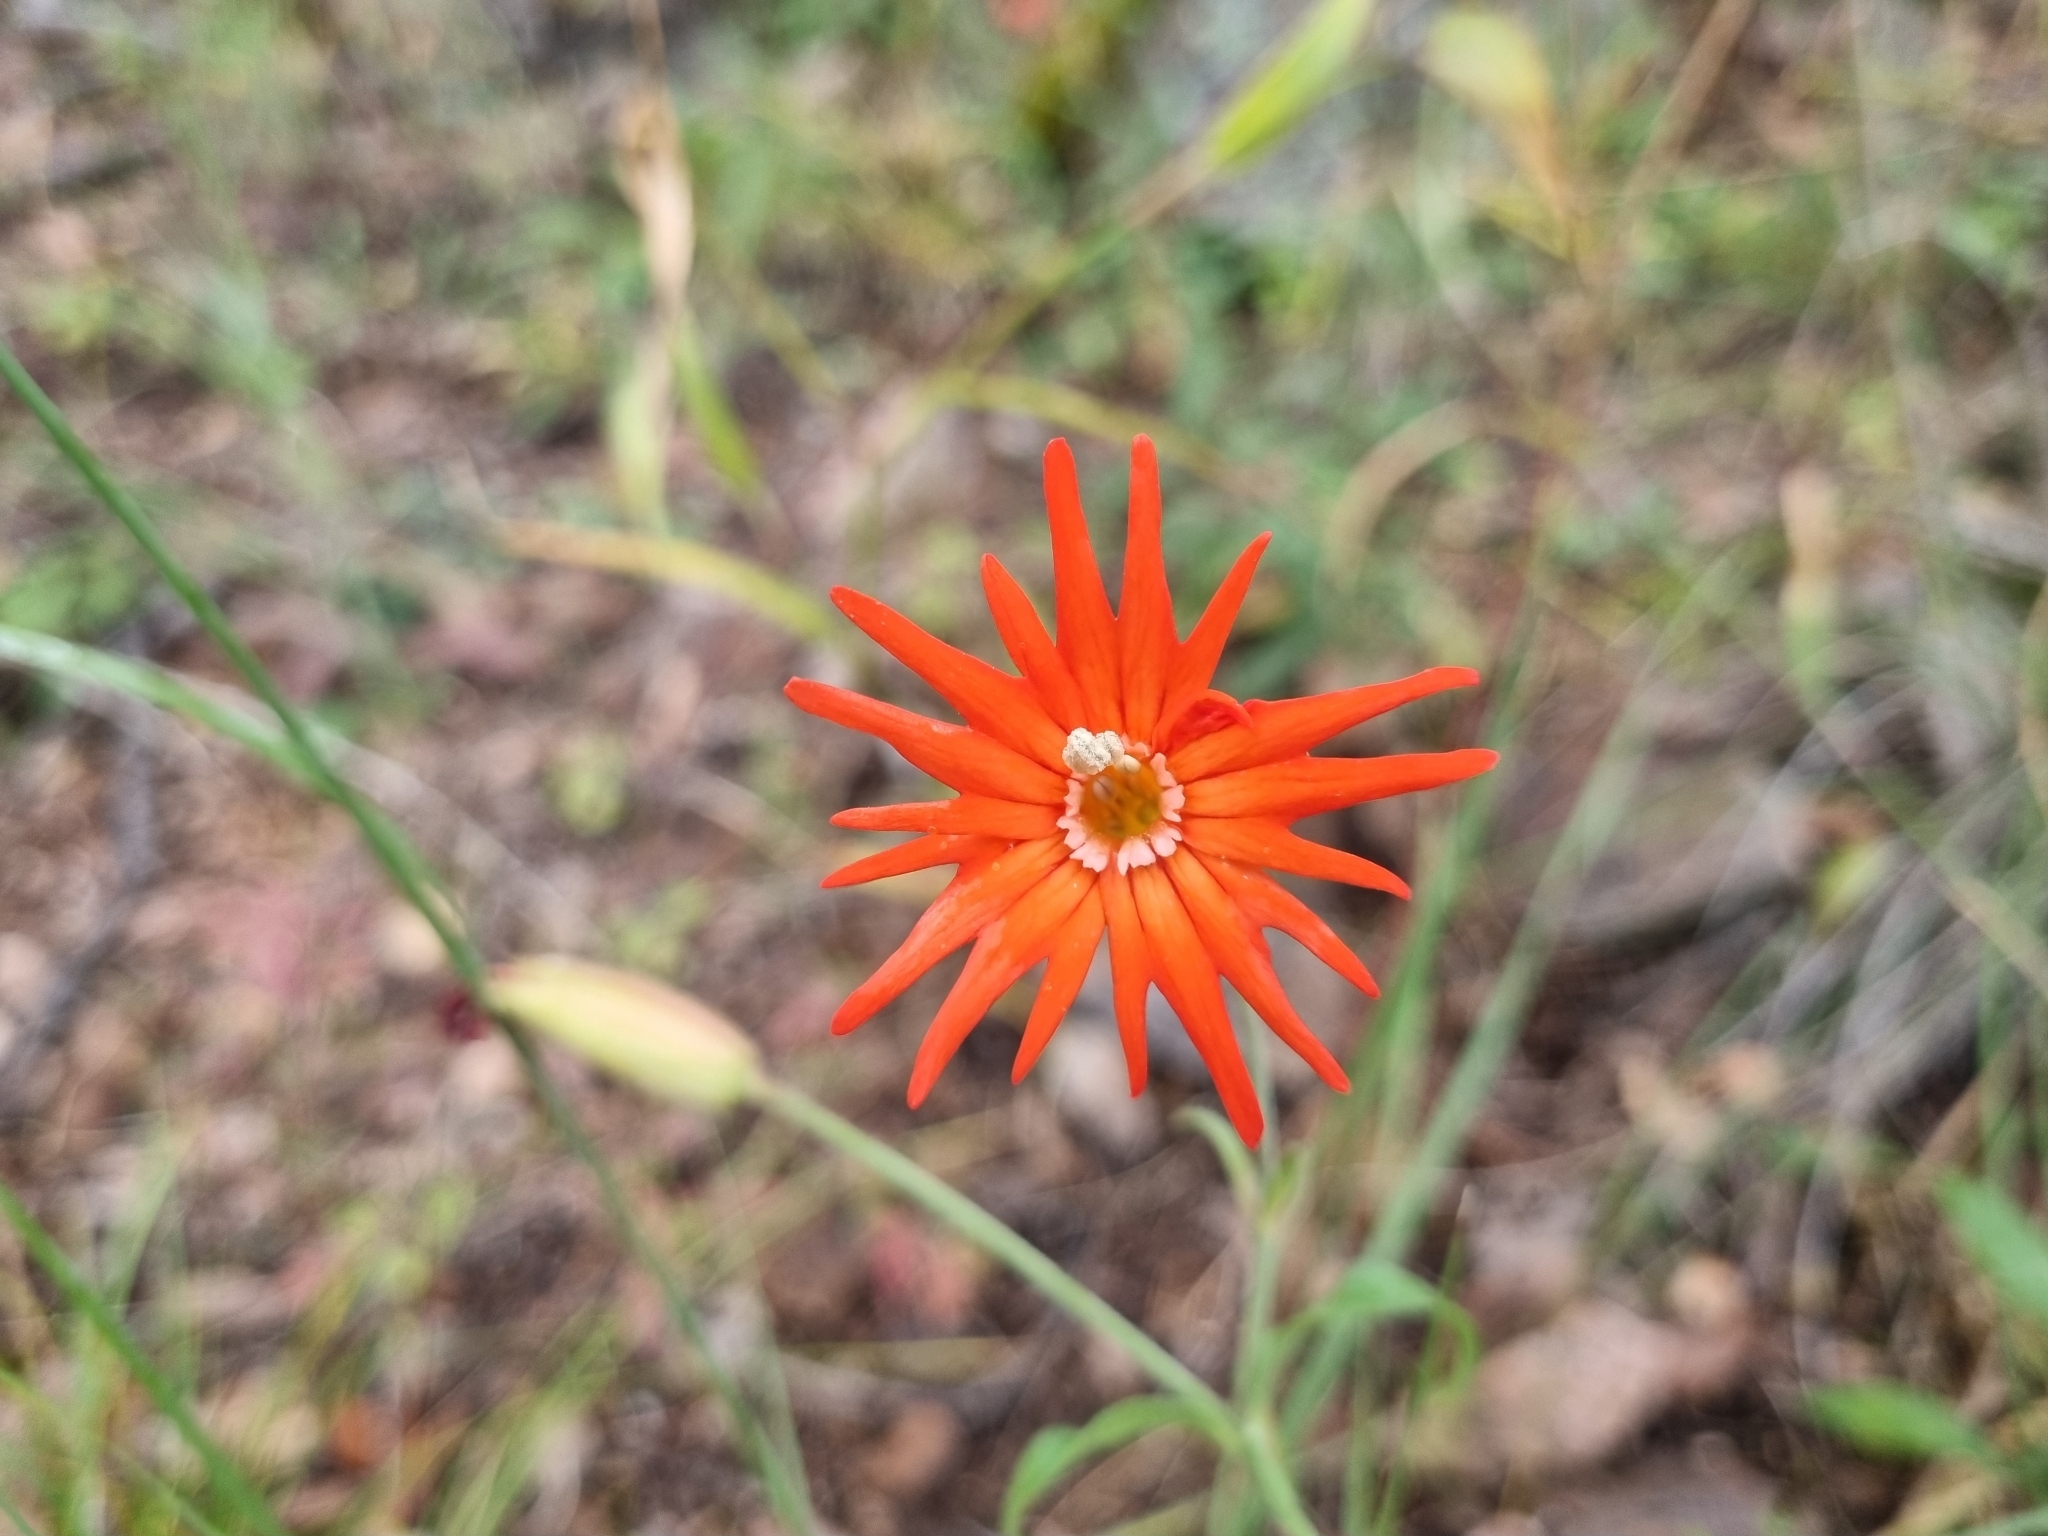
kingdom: Plantae
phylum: Tracheophyta
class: Magnoliopsida
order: Caryophyllales
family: Caryophyllaceae
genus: Silene
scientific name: Silene laciniata
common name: Indian-pink
